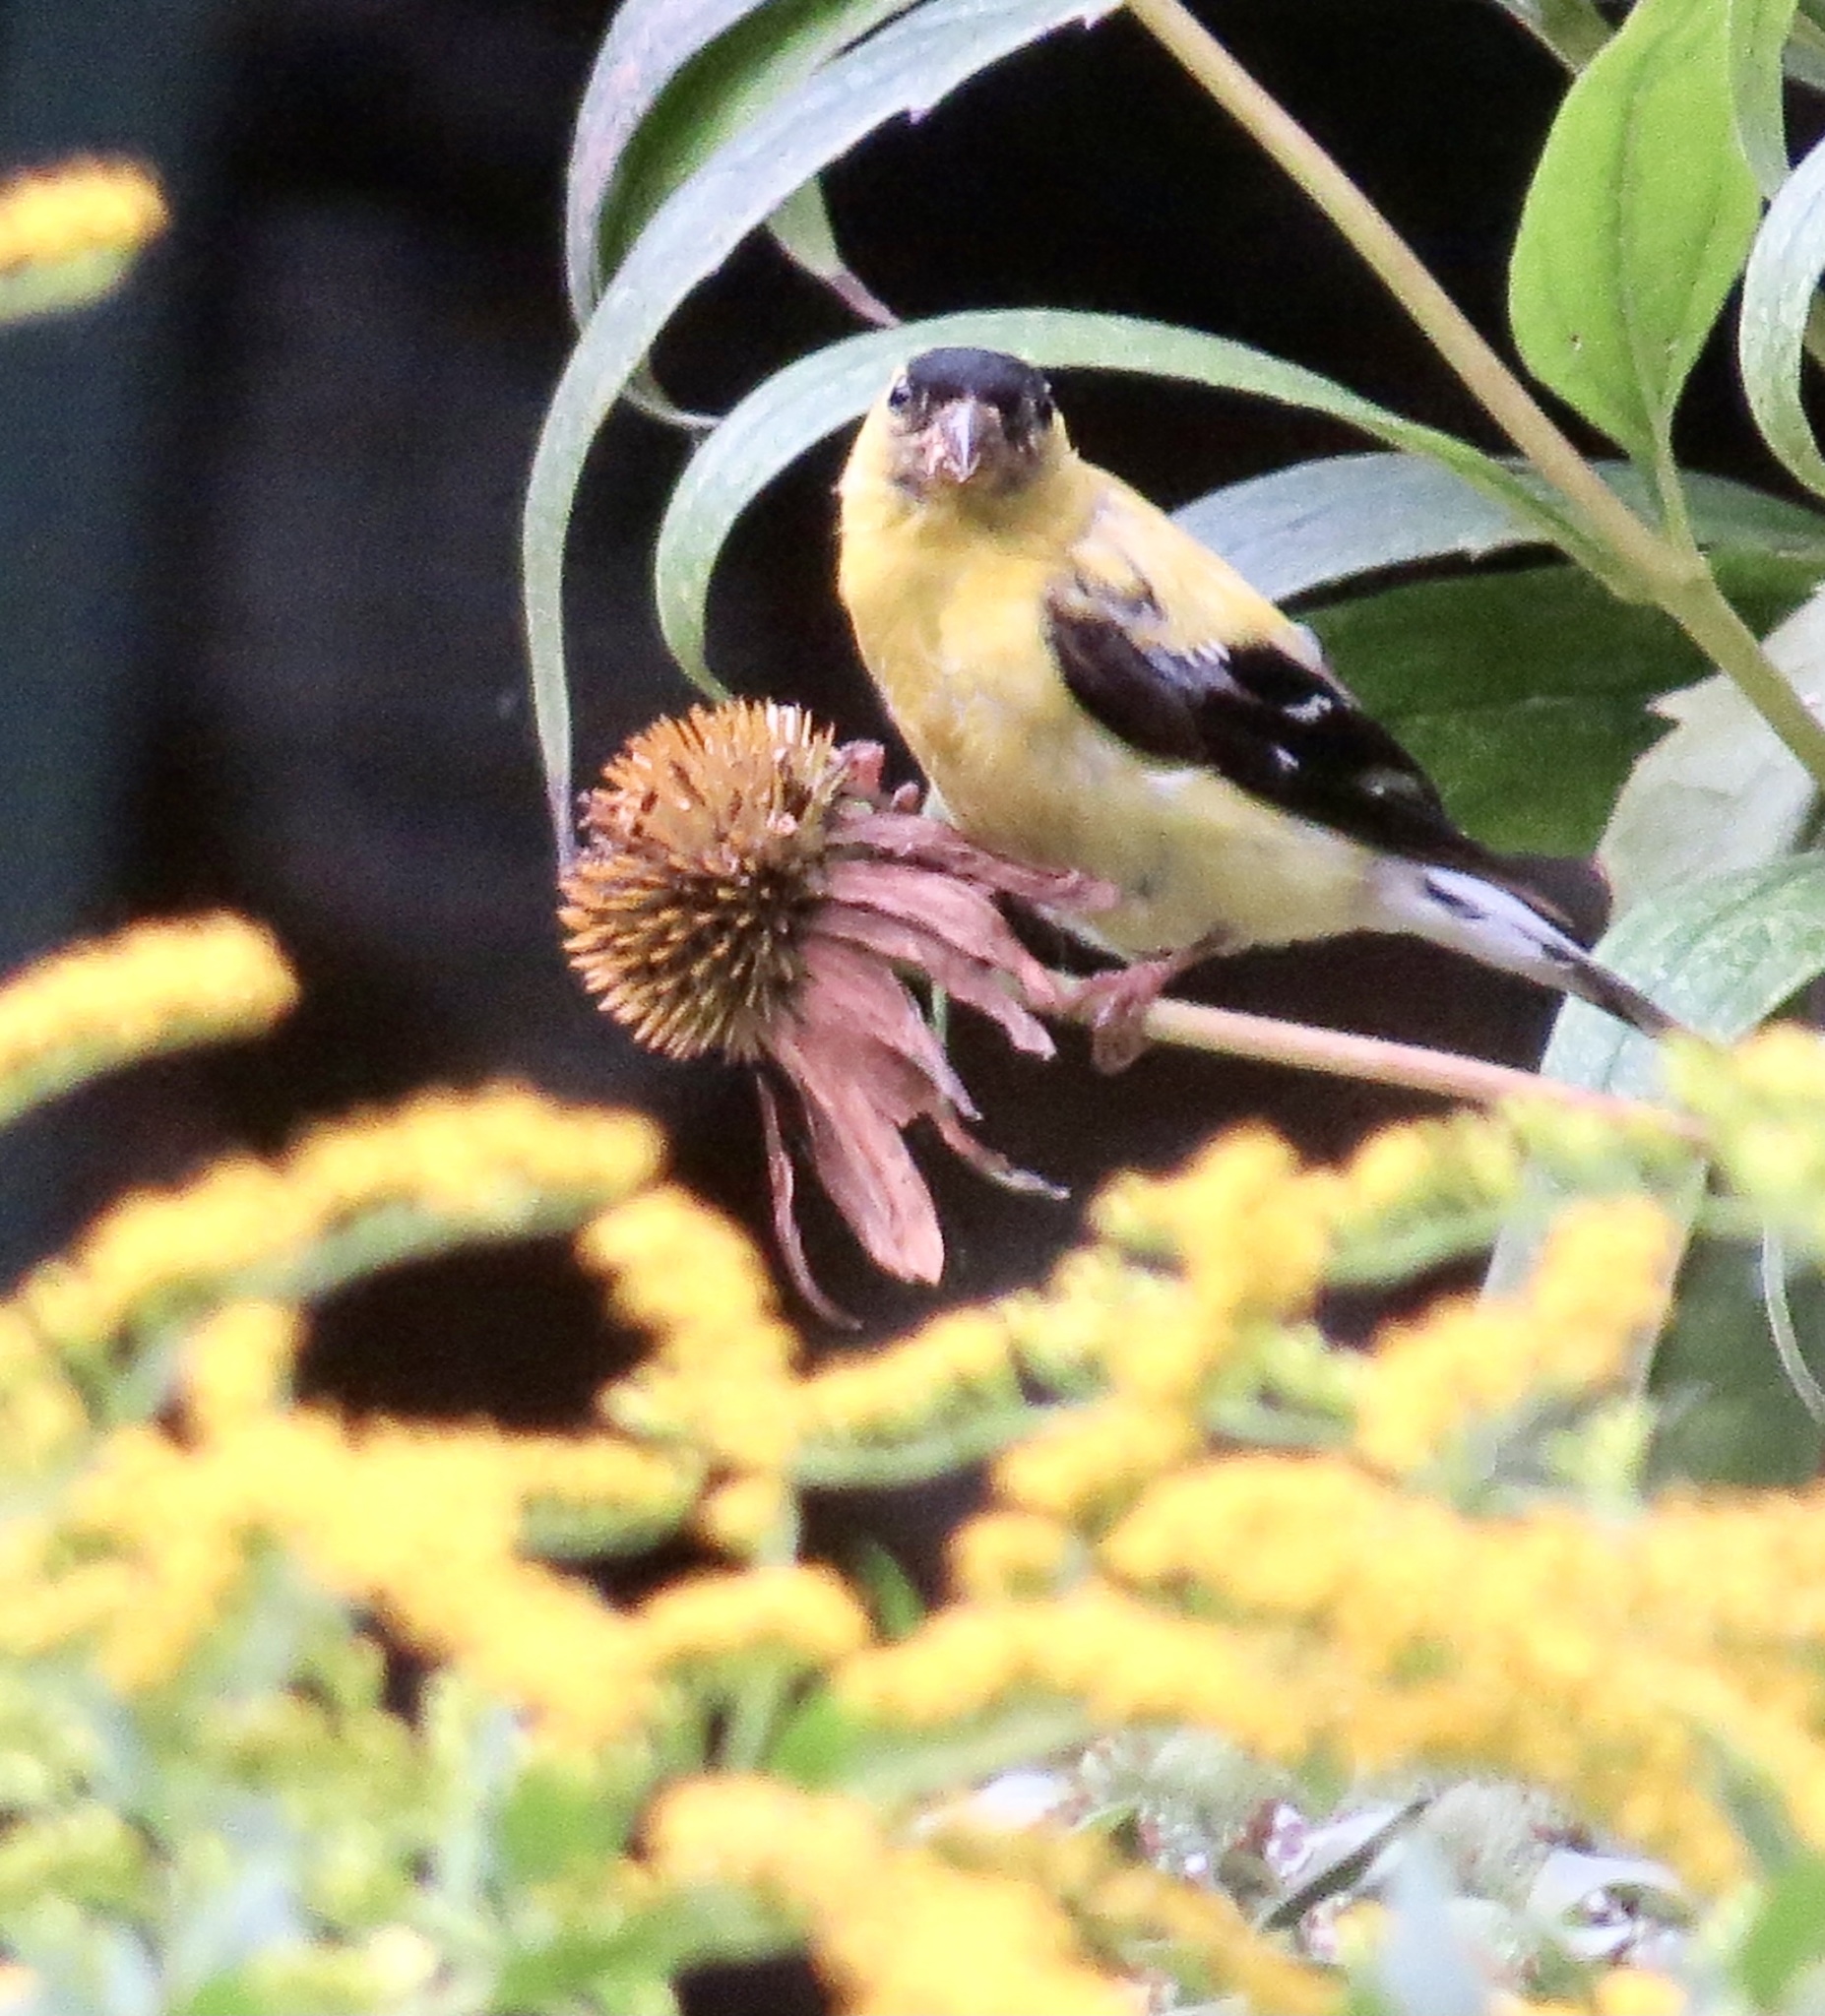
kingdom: Animalia
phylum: Chordata
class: Aves
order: Passeriformes
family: Fringillidae
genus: Spinus
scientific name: Spinus tristis
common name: American goldfinch
